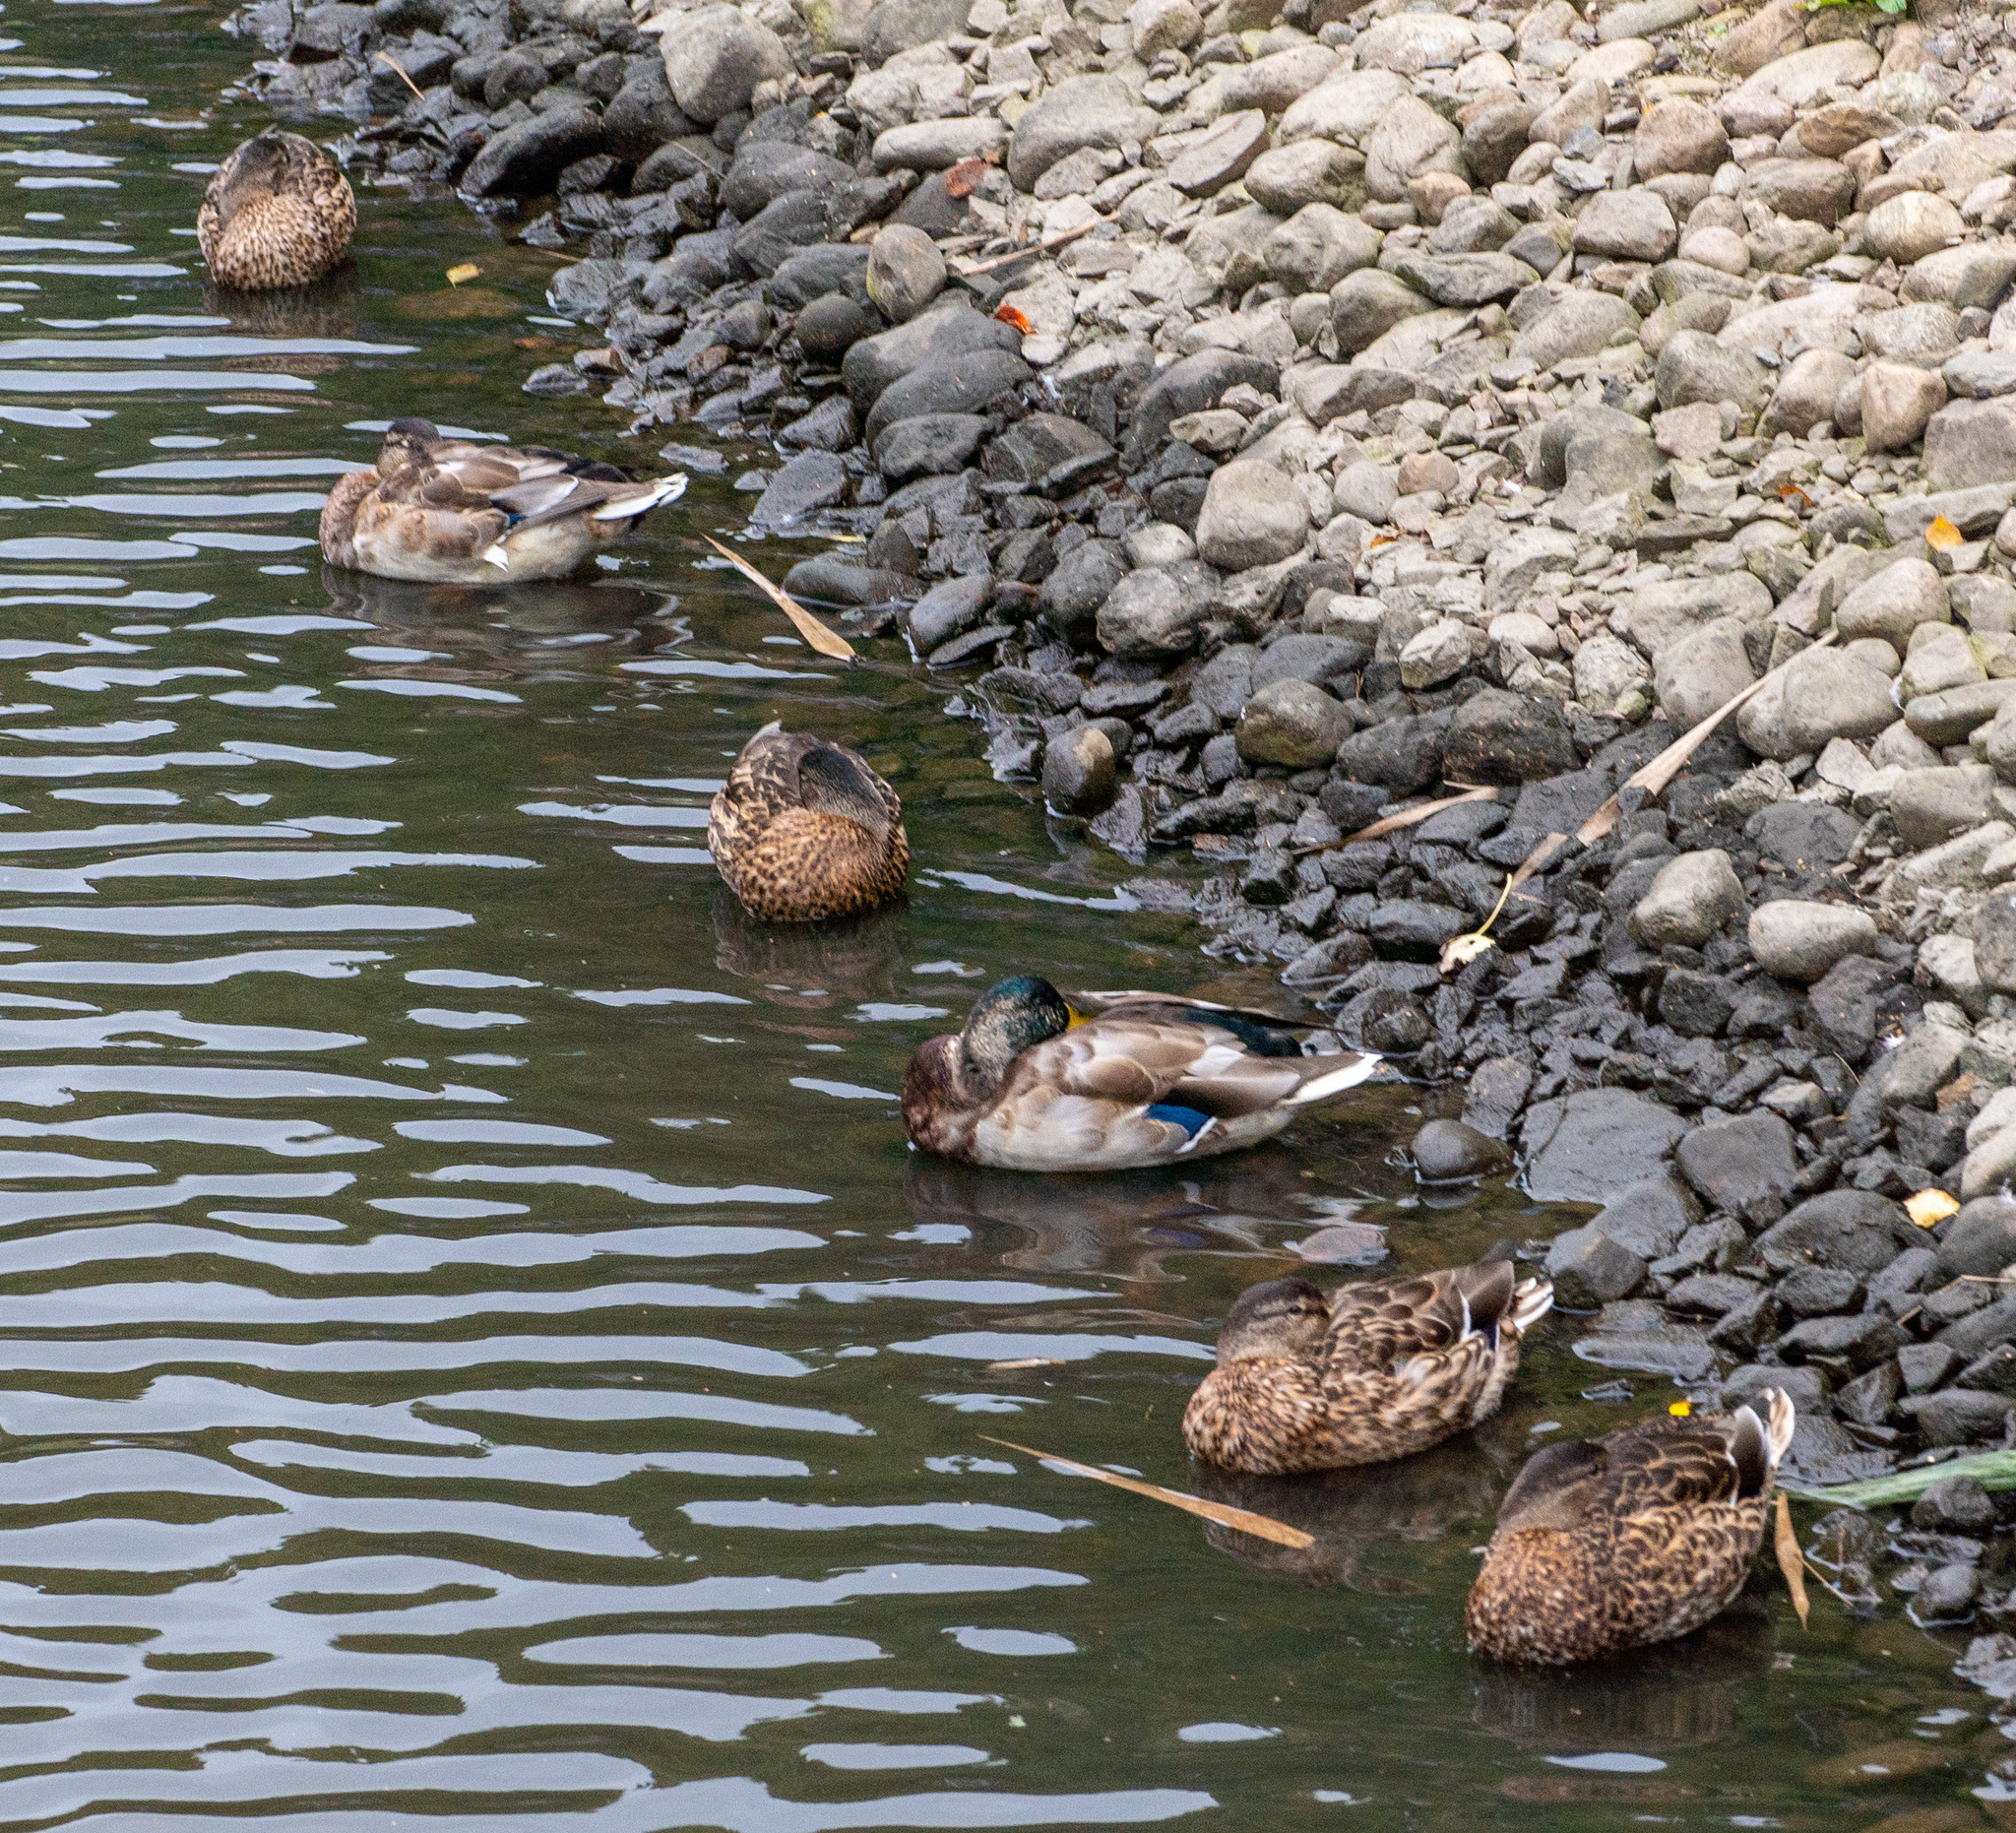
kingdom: Animalia
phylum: Chordata
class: Aves
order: Anseriformes
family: Anatidae
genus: Anas
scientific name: Anas platyrhynchos
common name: Mallard
